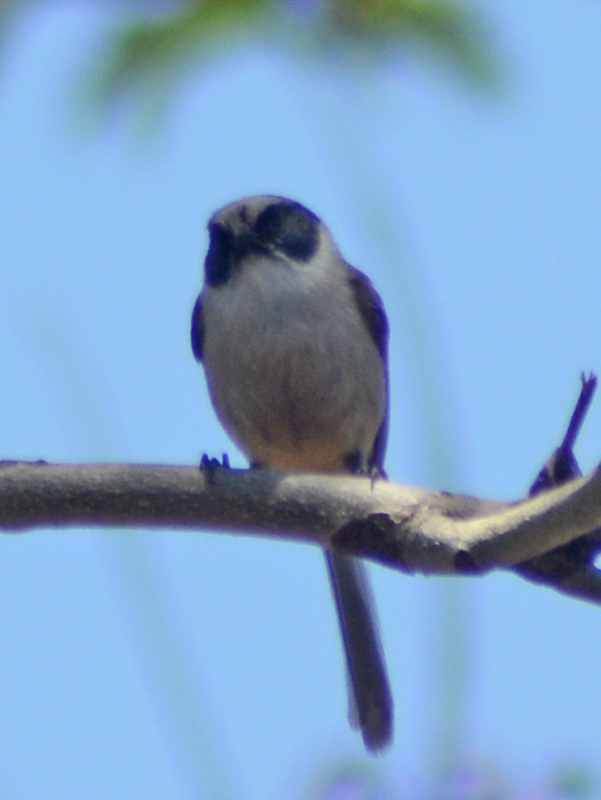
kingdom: Animalia
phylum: Chordata
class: Aves
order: Passeriformes
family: Aegithalidae
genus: Psaltriparus
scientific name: Psaltriparus minimus
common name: American bushtit
